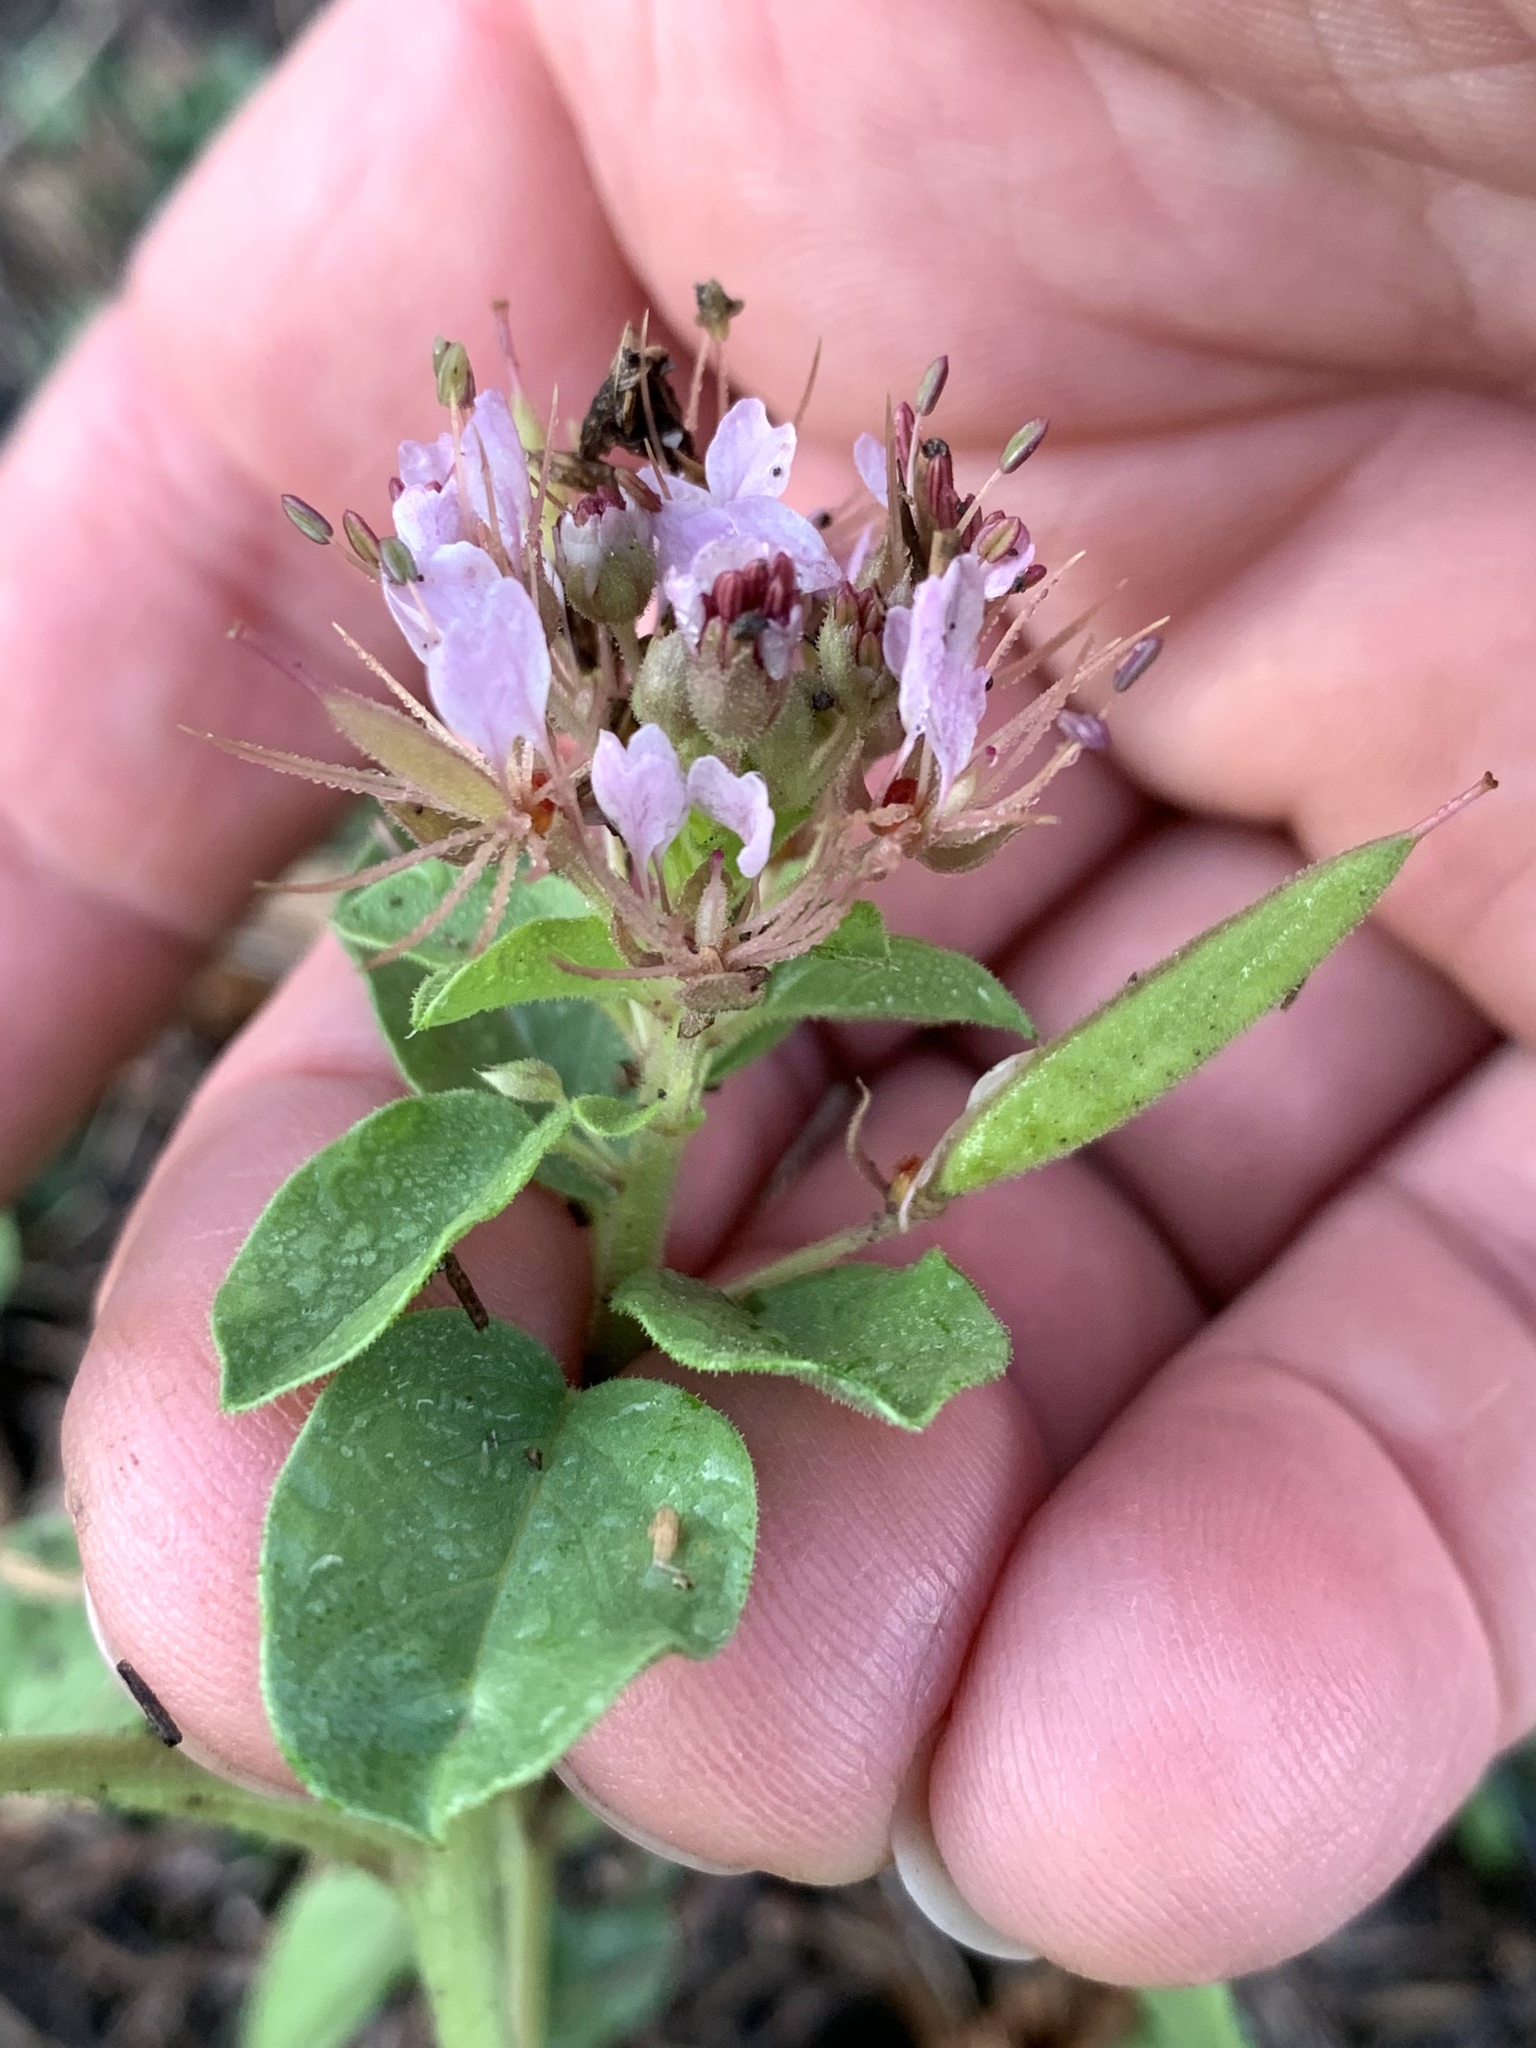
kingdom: Plantae
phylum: Tracheophyta
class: Magnoliopsida
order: Lamiales
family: Lamiaceae
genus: Teucrium
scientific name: Teucrium canadense
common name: American germander
